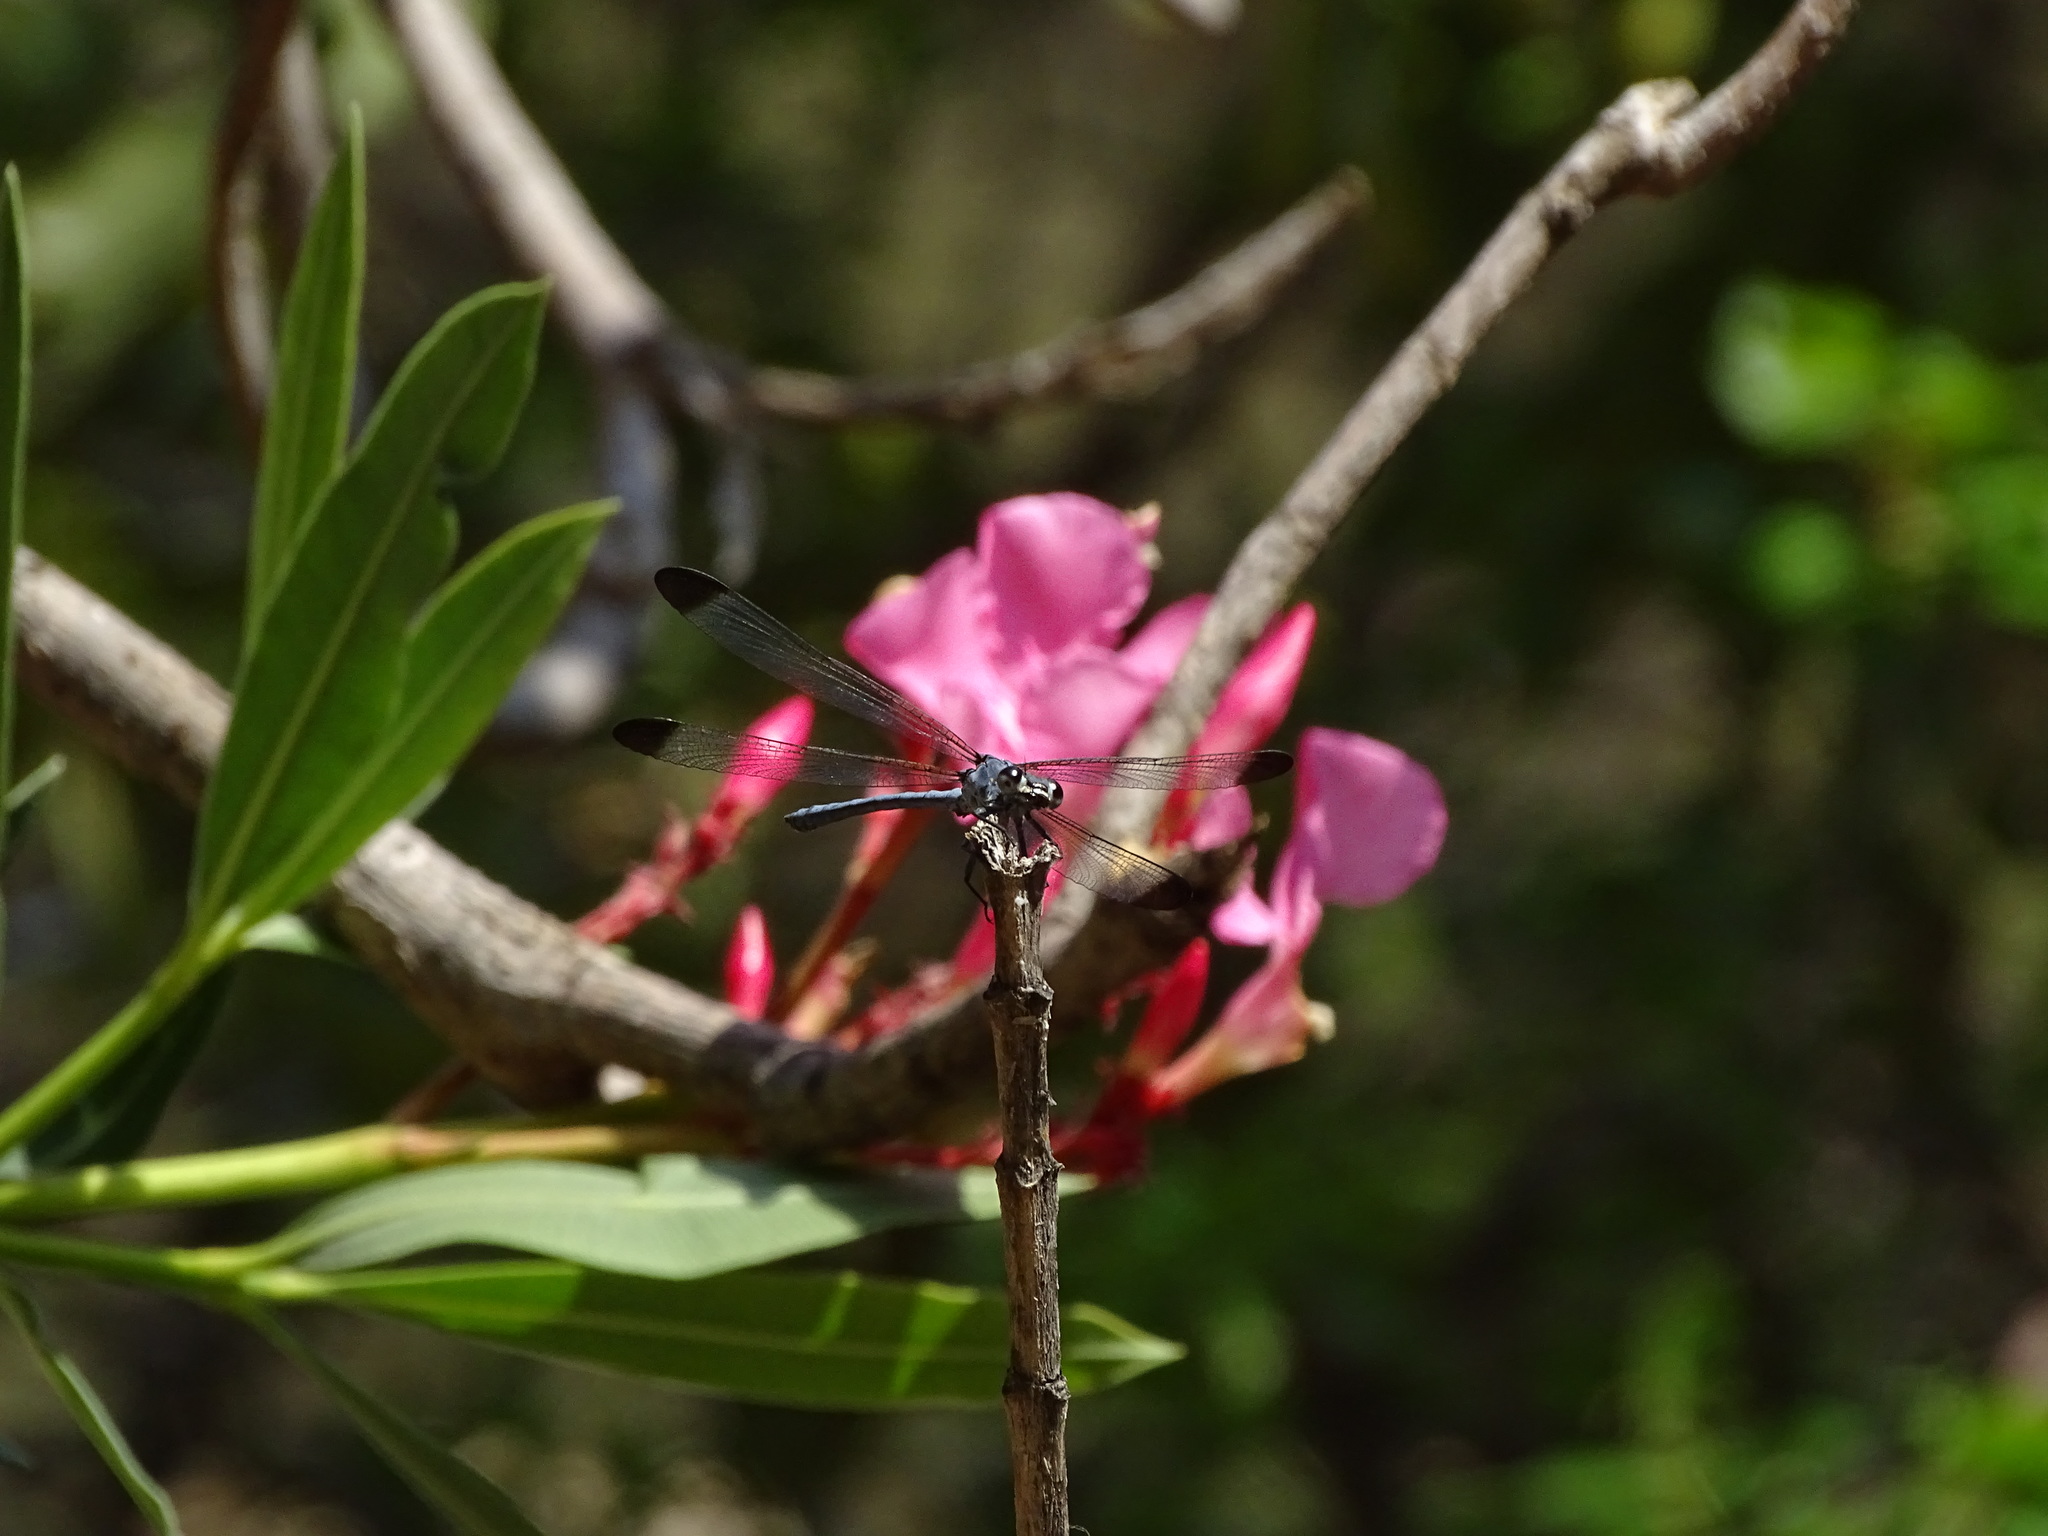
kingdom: Animalia
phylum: Arthropoda
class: Insecta
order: Odonata
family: Euphaeidae
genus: Epallage
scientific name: Epallage fatime
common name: Odalisque
